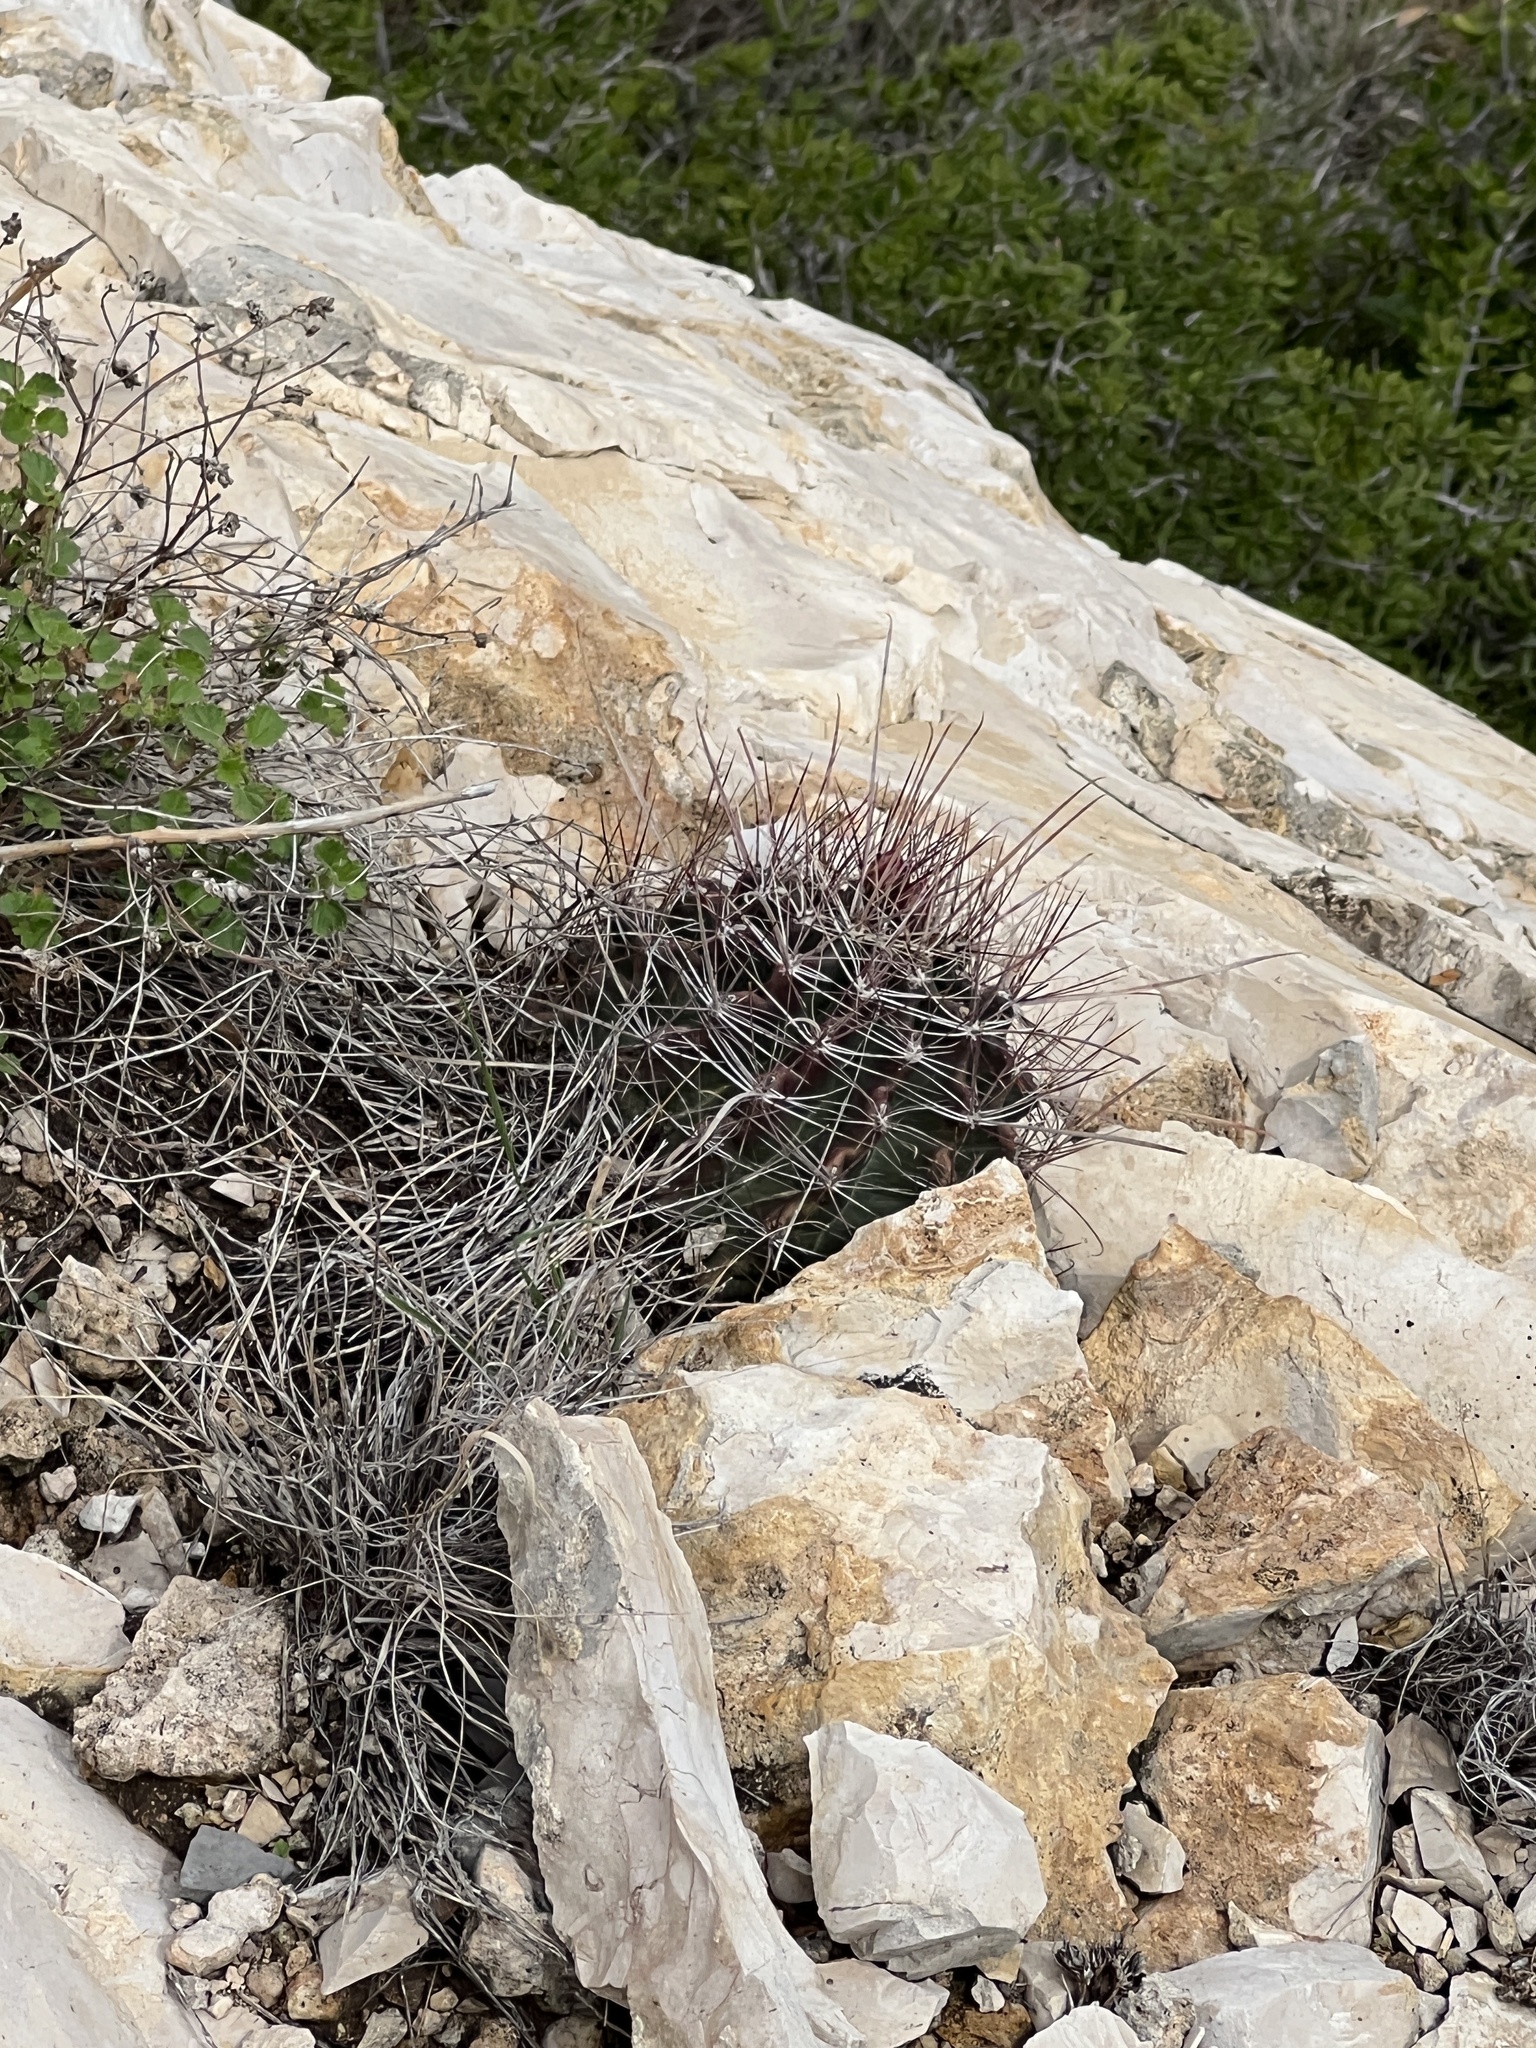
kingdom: Plantae
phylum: Tracheophyta
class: Magnoliopsida
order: Caryophyllales
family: Cactaceae
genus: Bisnaga
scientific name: Bisnaga hamatacantha
